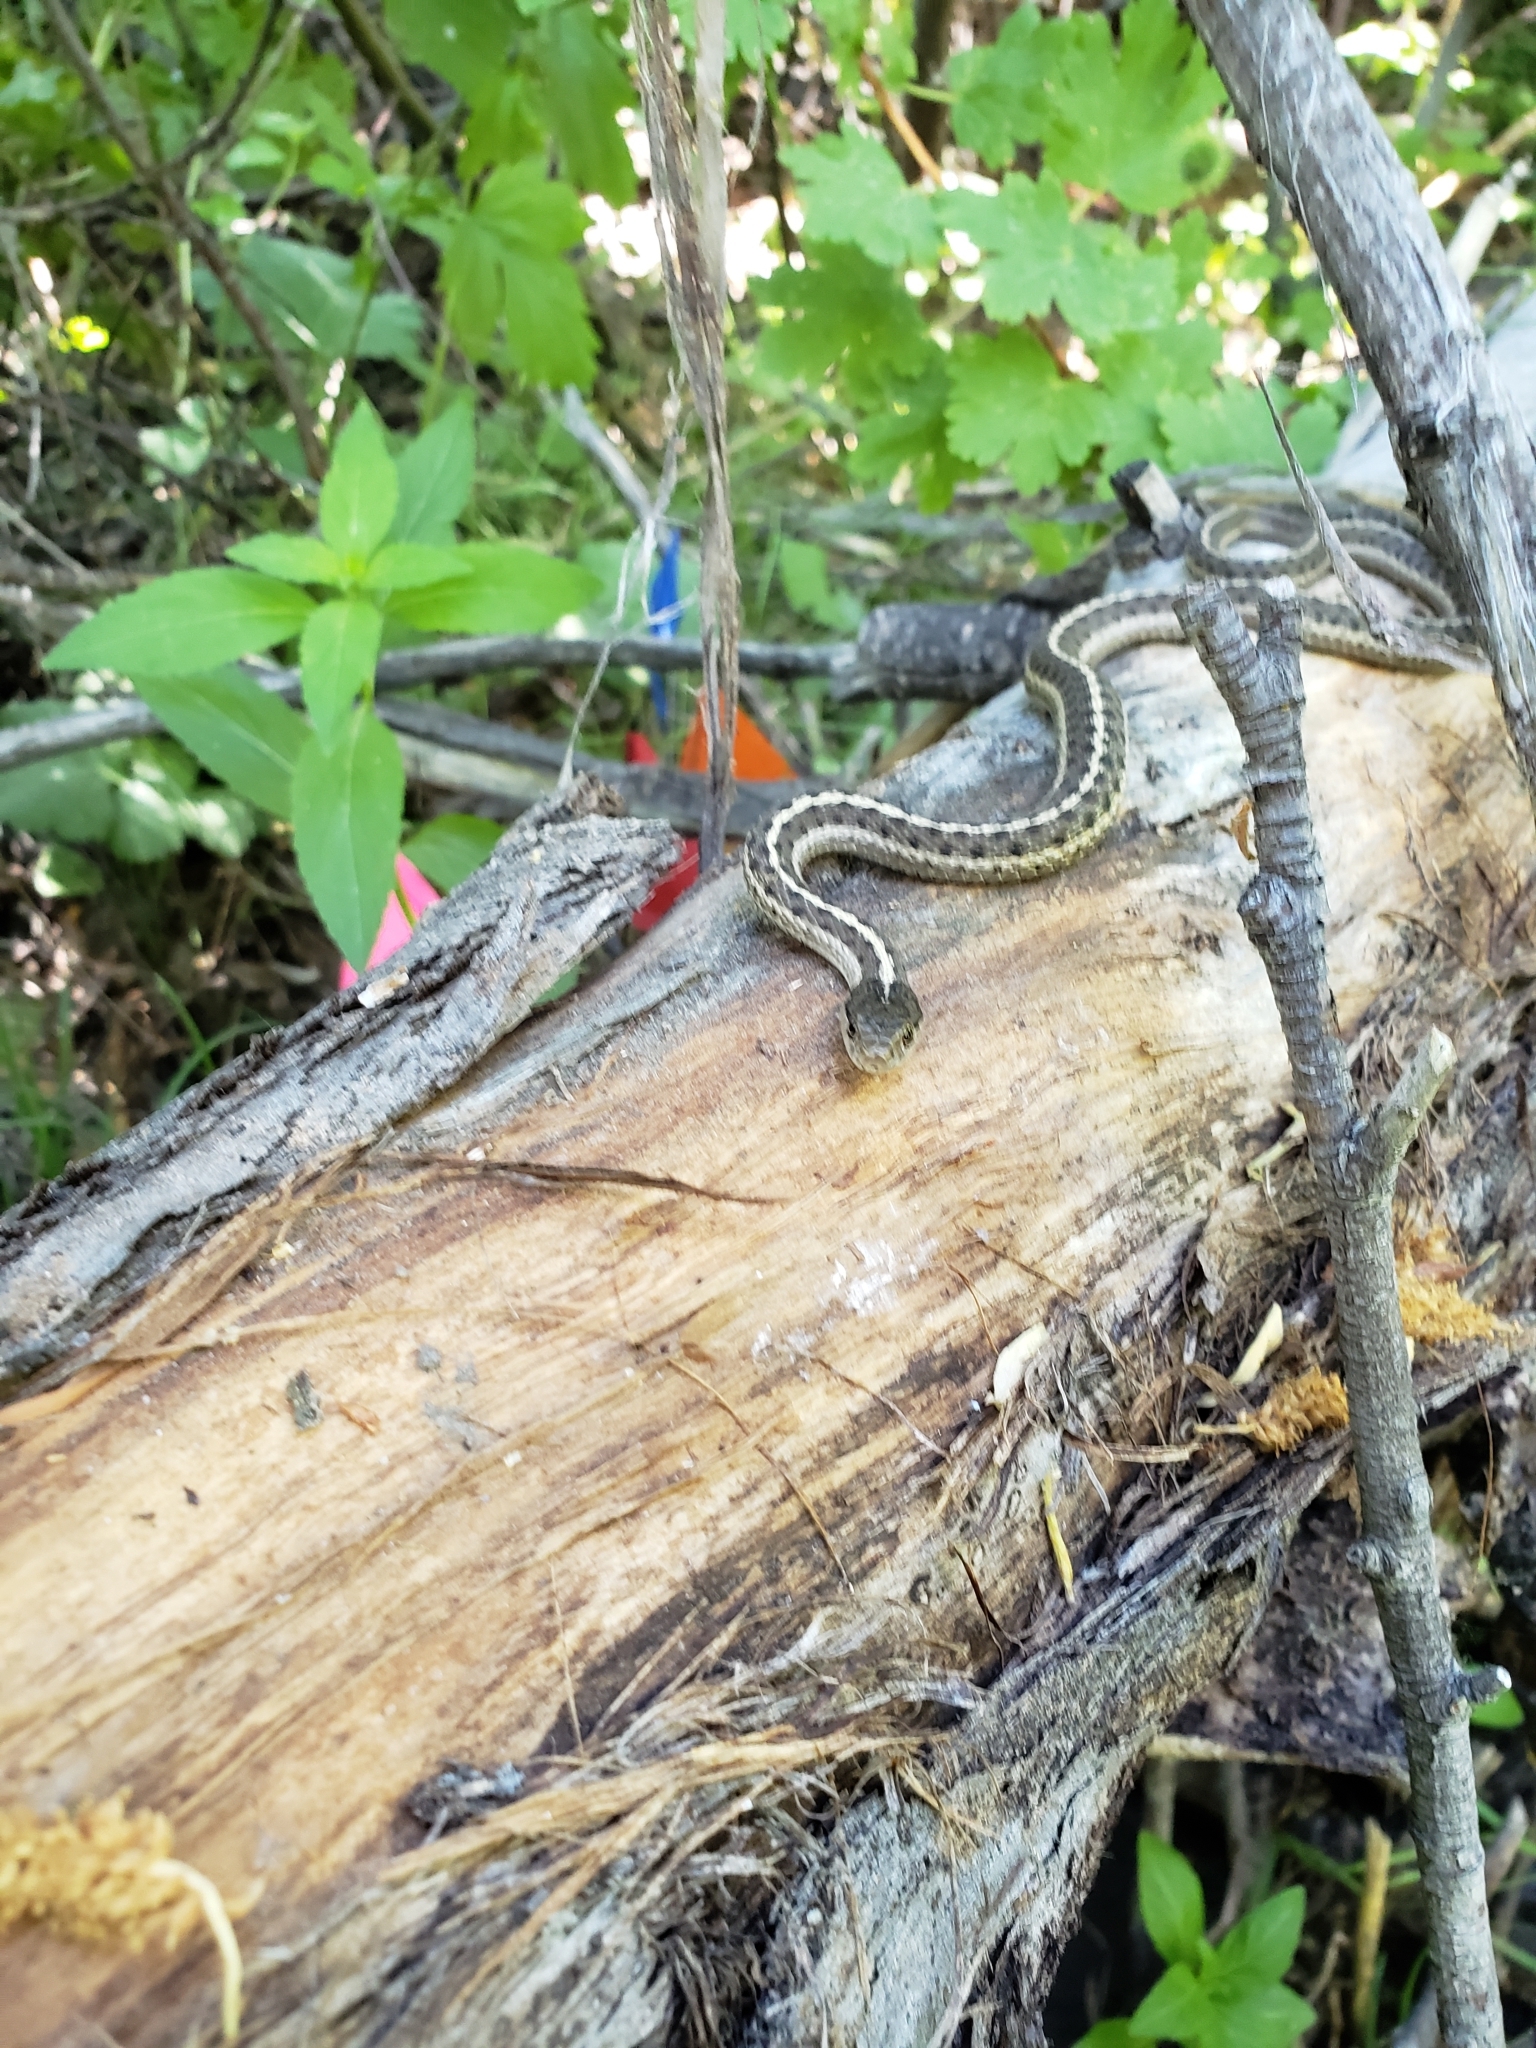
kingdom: Animalia
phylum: Chordata
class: Squamata
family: Colubridae
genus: Thamnophis
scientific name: Thamnophis elegans
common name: Western terrestrial garter snake
